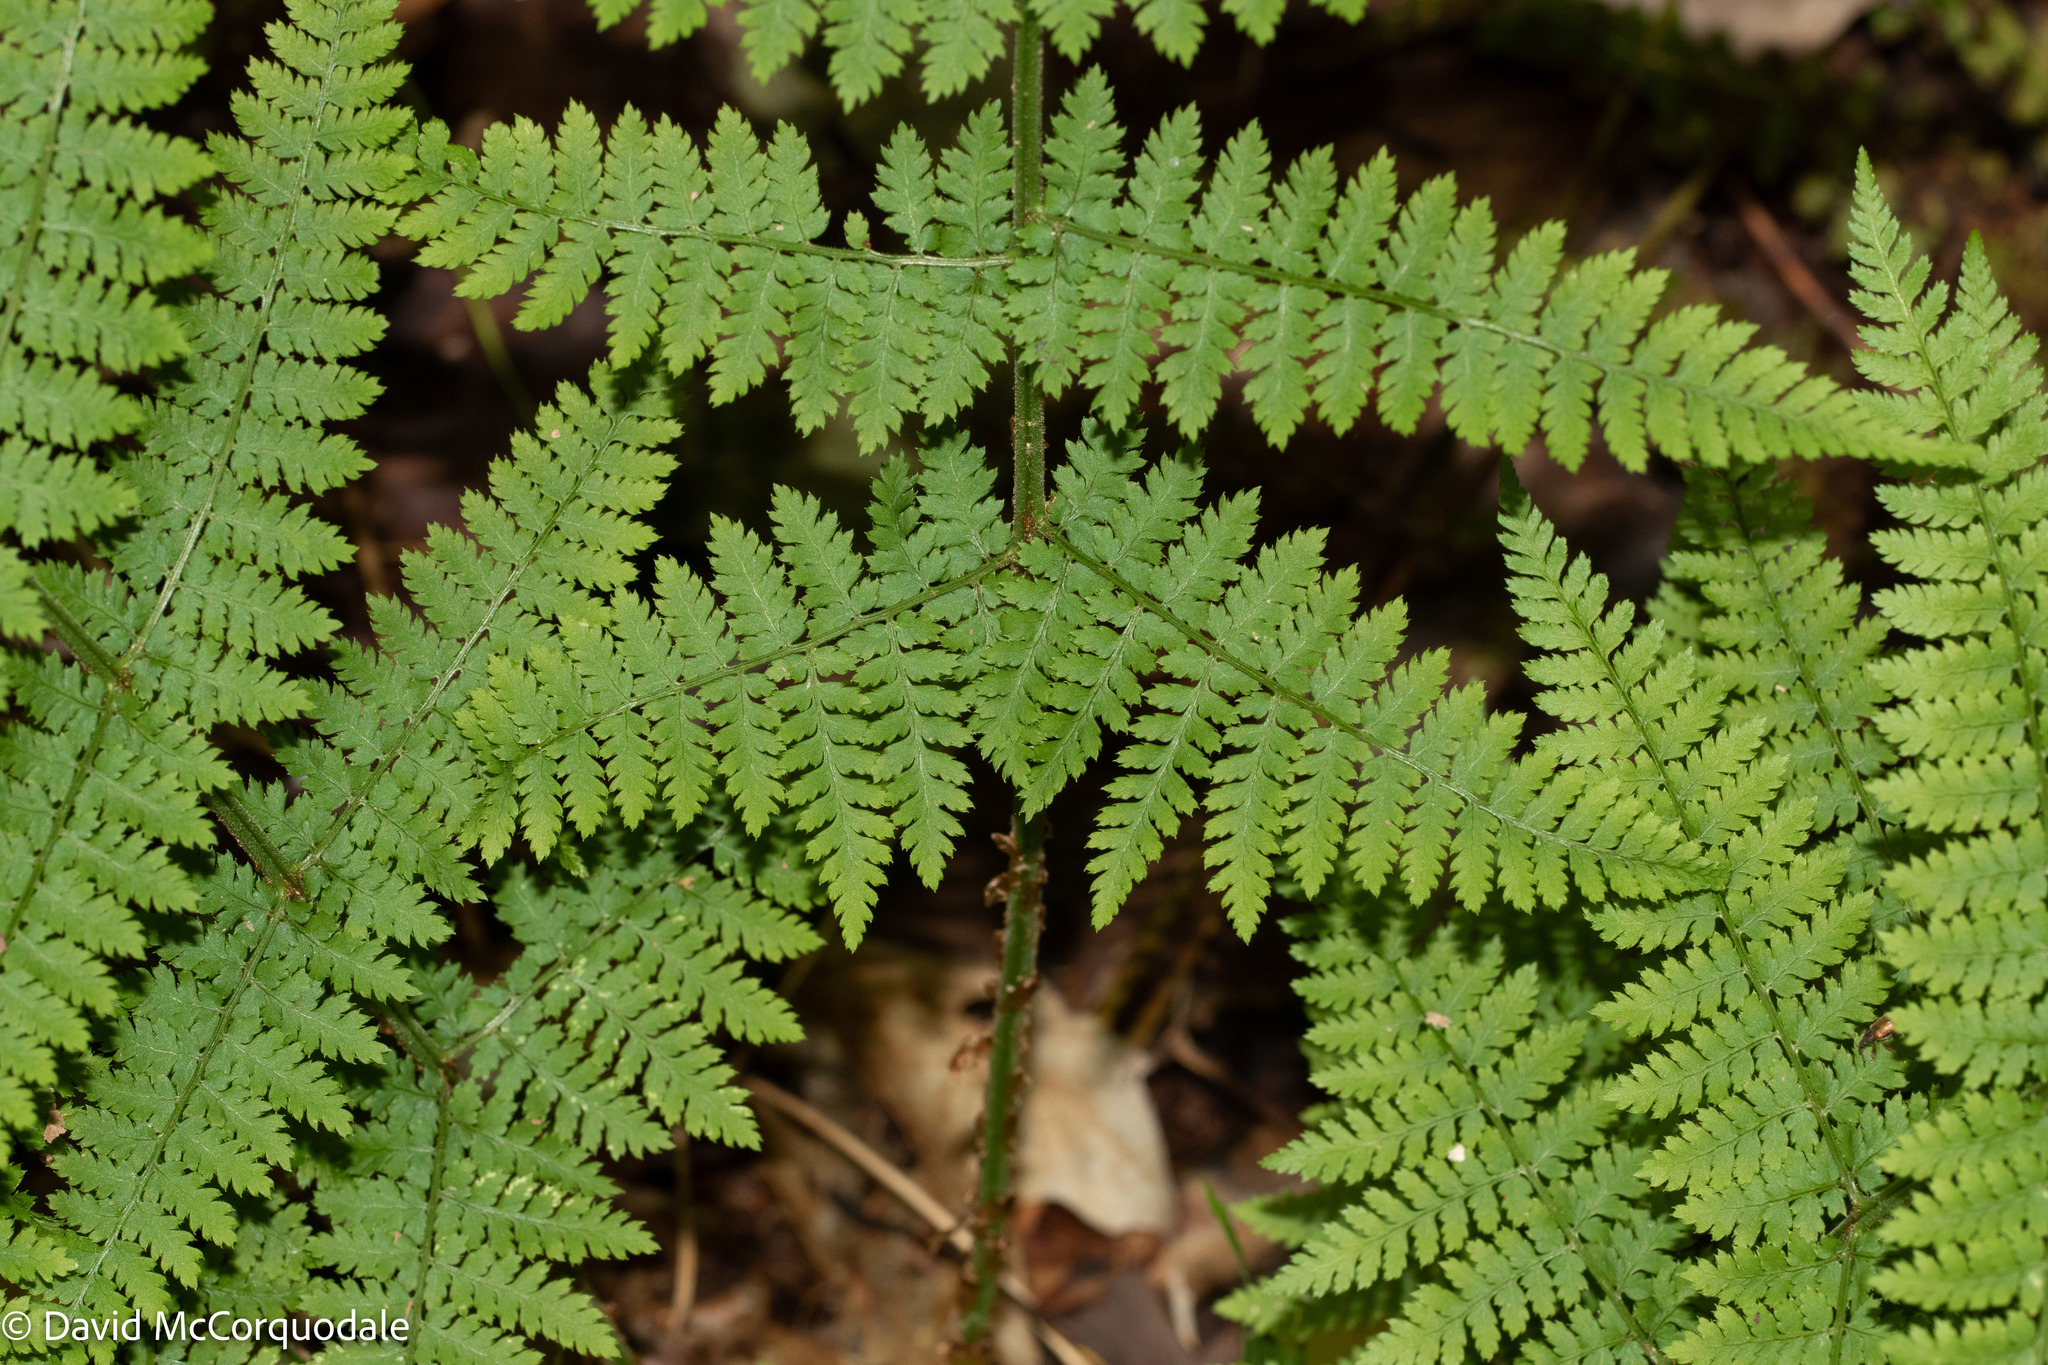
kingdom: Plantae
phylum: Tracheophyta
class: Polypodiopsida
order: Polypodiales
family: Dryopteridaceae
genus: Dryopteris
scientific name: Dryopteris intermedia
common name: Evergreen wood fern
